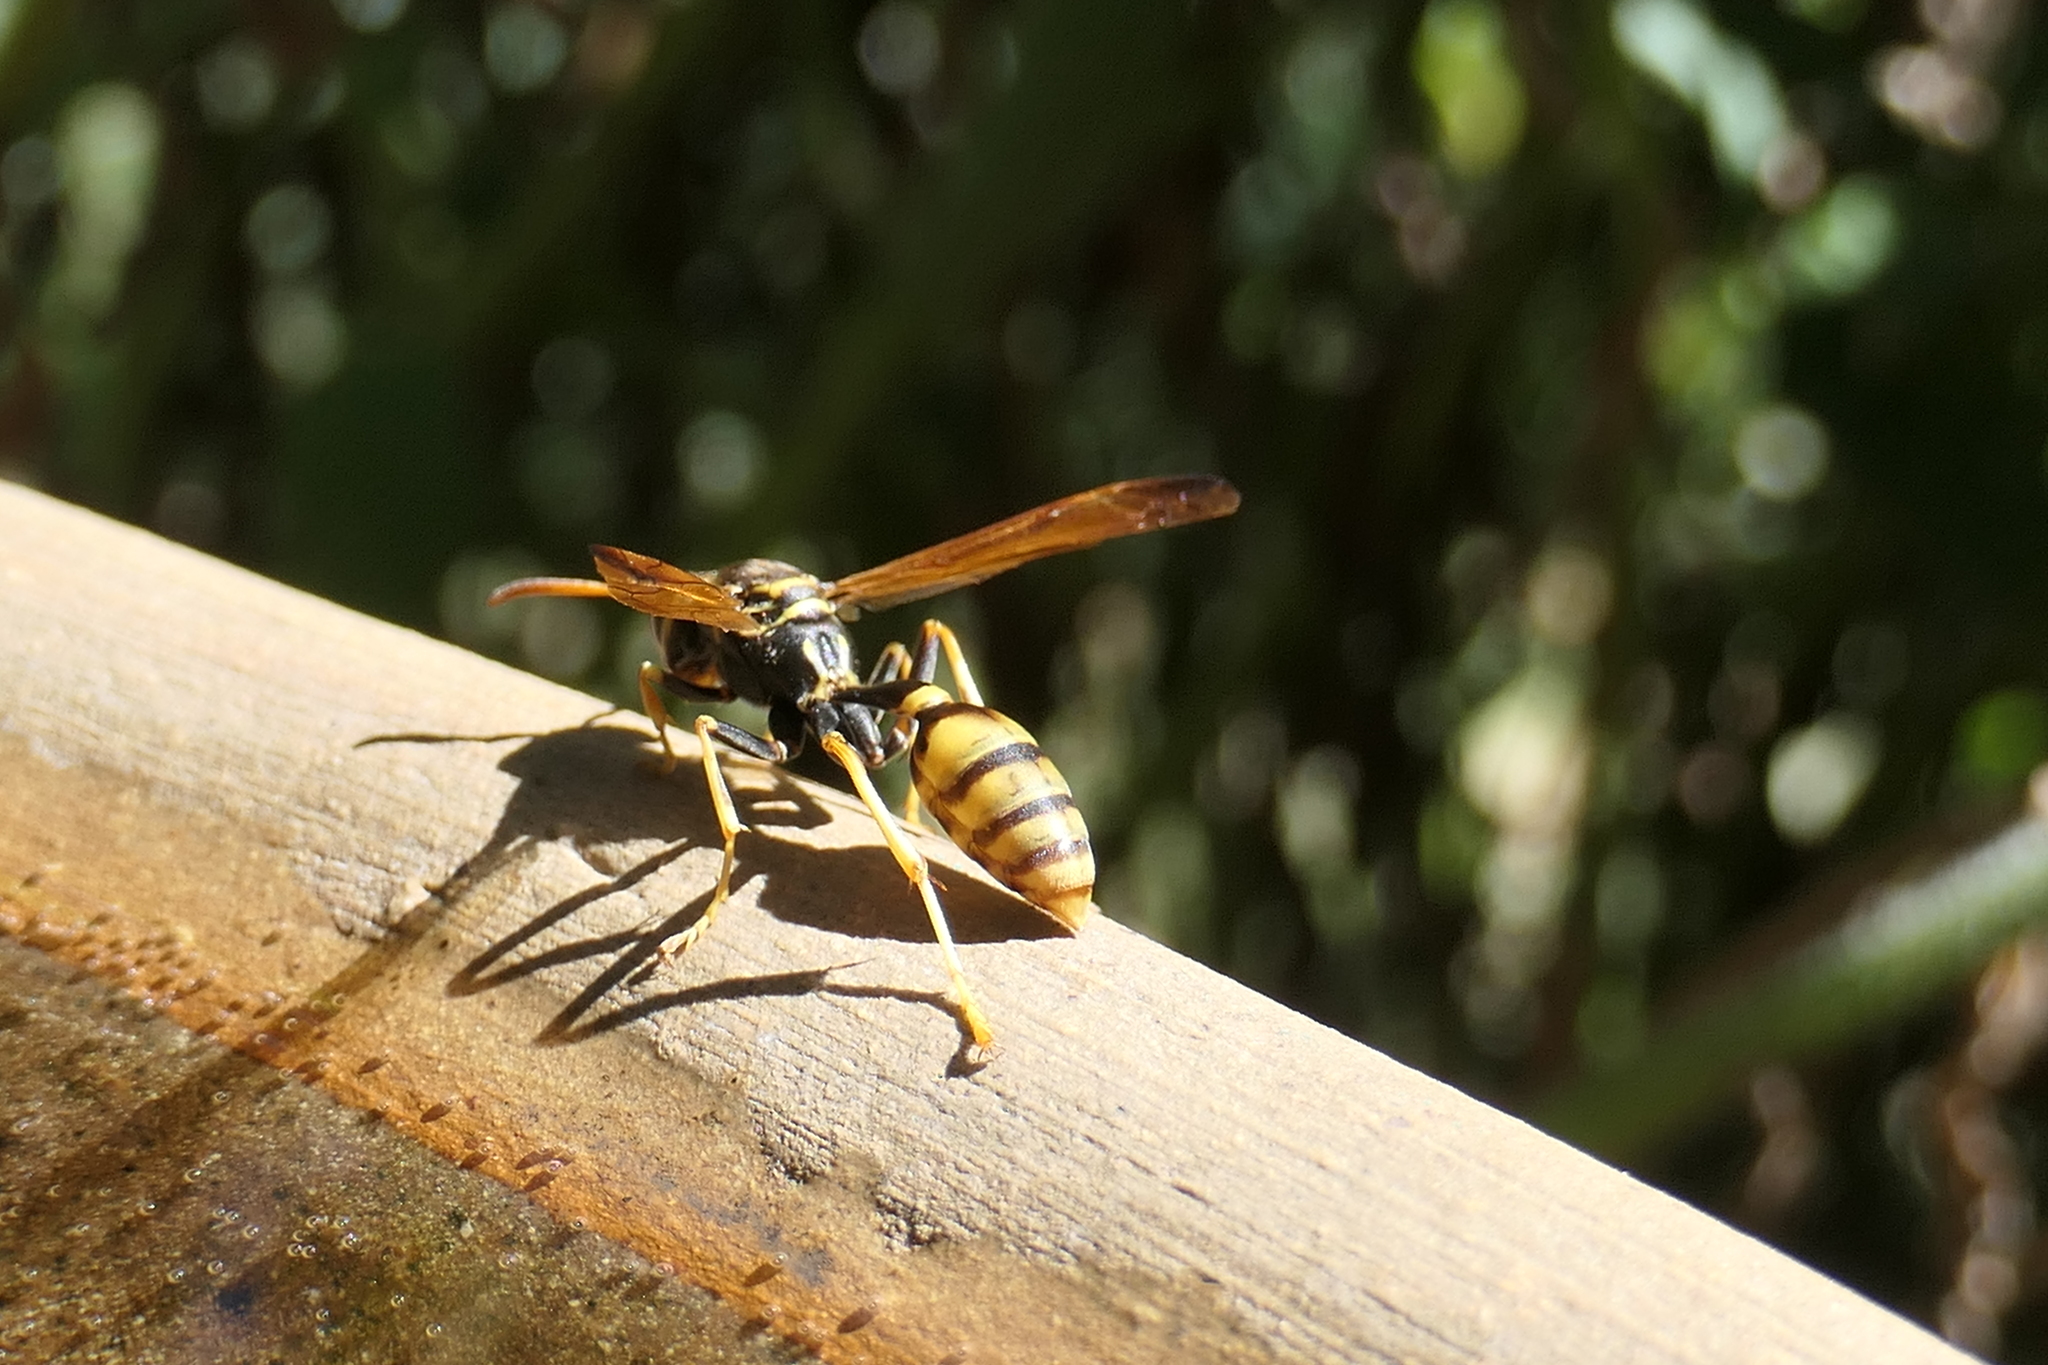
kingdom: Animalia
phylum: Arthropoda
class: Insecta
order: Hymenoptera
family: Vespidae
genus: Mischocyttarus
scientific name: Mischocyttarus flavitarsis
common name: Wasp
